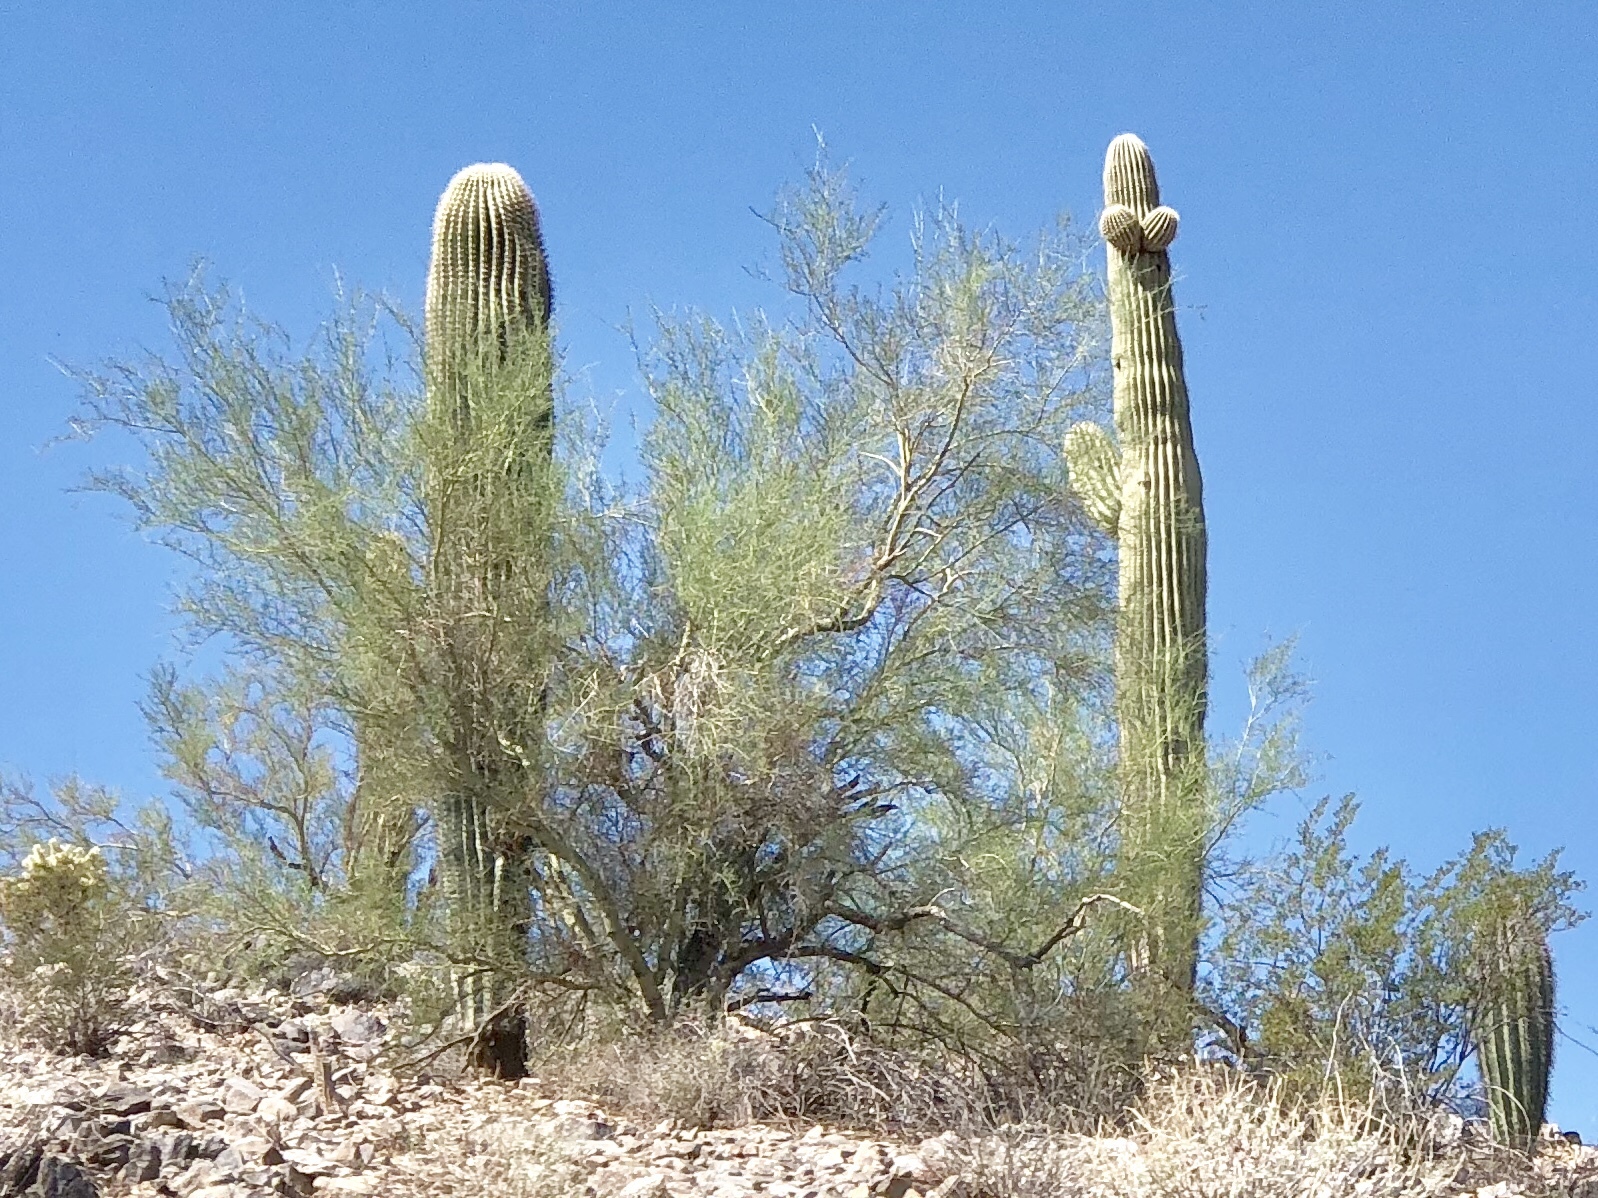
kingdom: Plantae
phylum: Tracheophyta
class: Magnoliopsida
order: Fabales
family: Fabaceae
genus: Parkinsonia
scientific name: Parkinsonia microphylla
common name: Yellow paloverde
